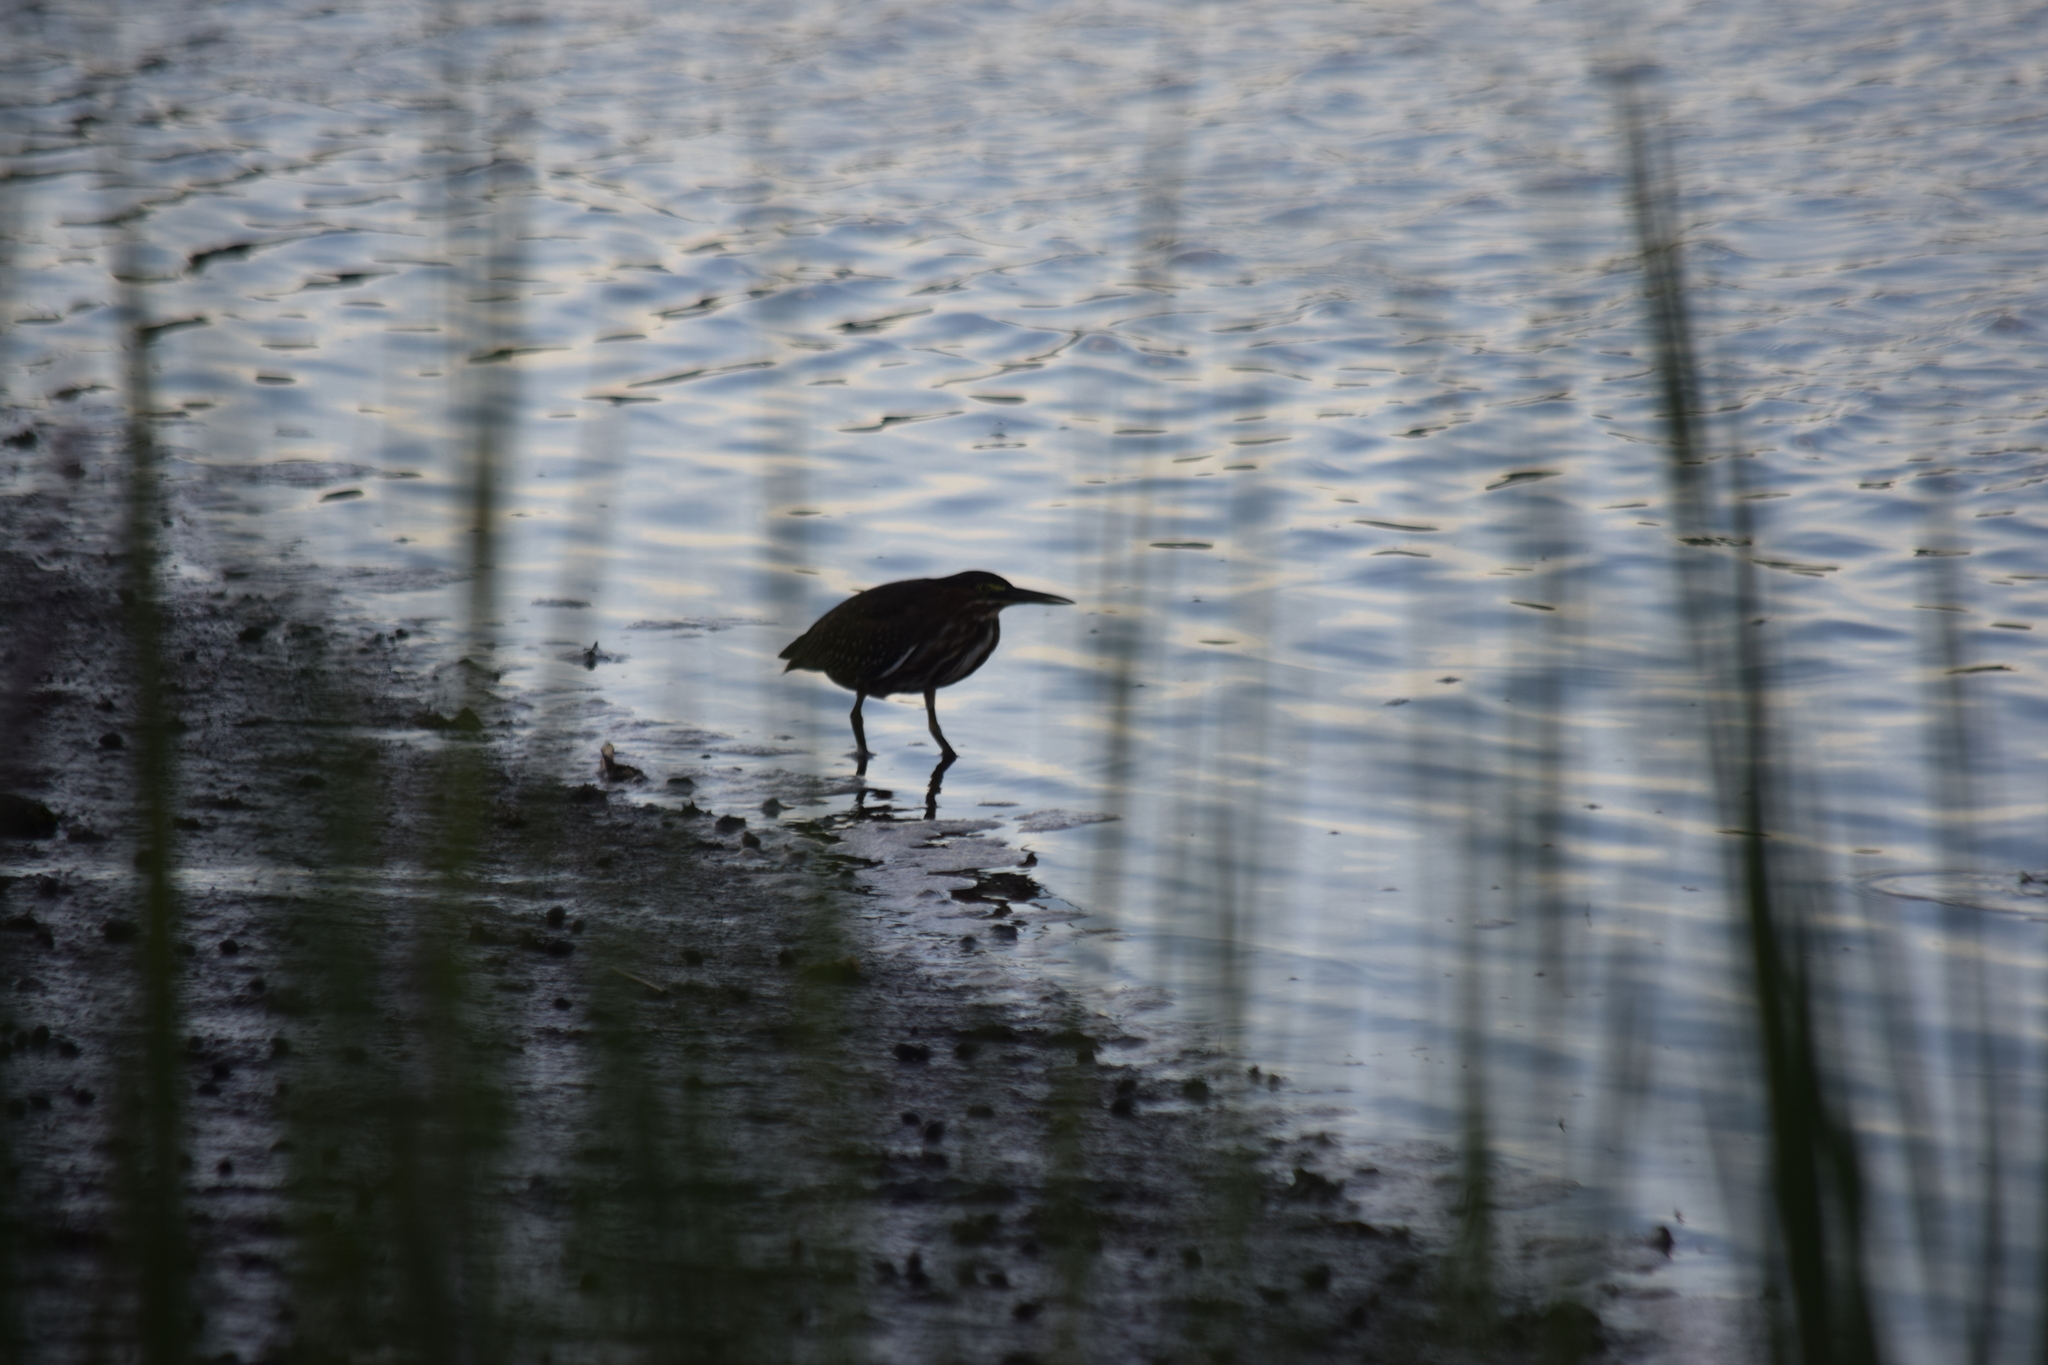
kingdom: Animalia
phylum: Chordata
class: Aves
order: Pelecaniformes
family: Ardeidae
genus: Butorides
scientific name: Butorides virescens
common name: Green heron
